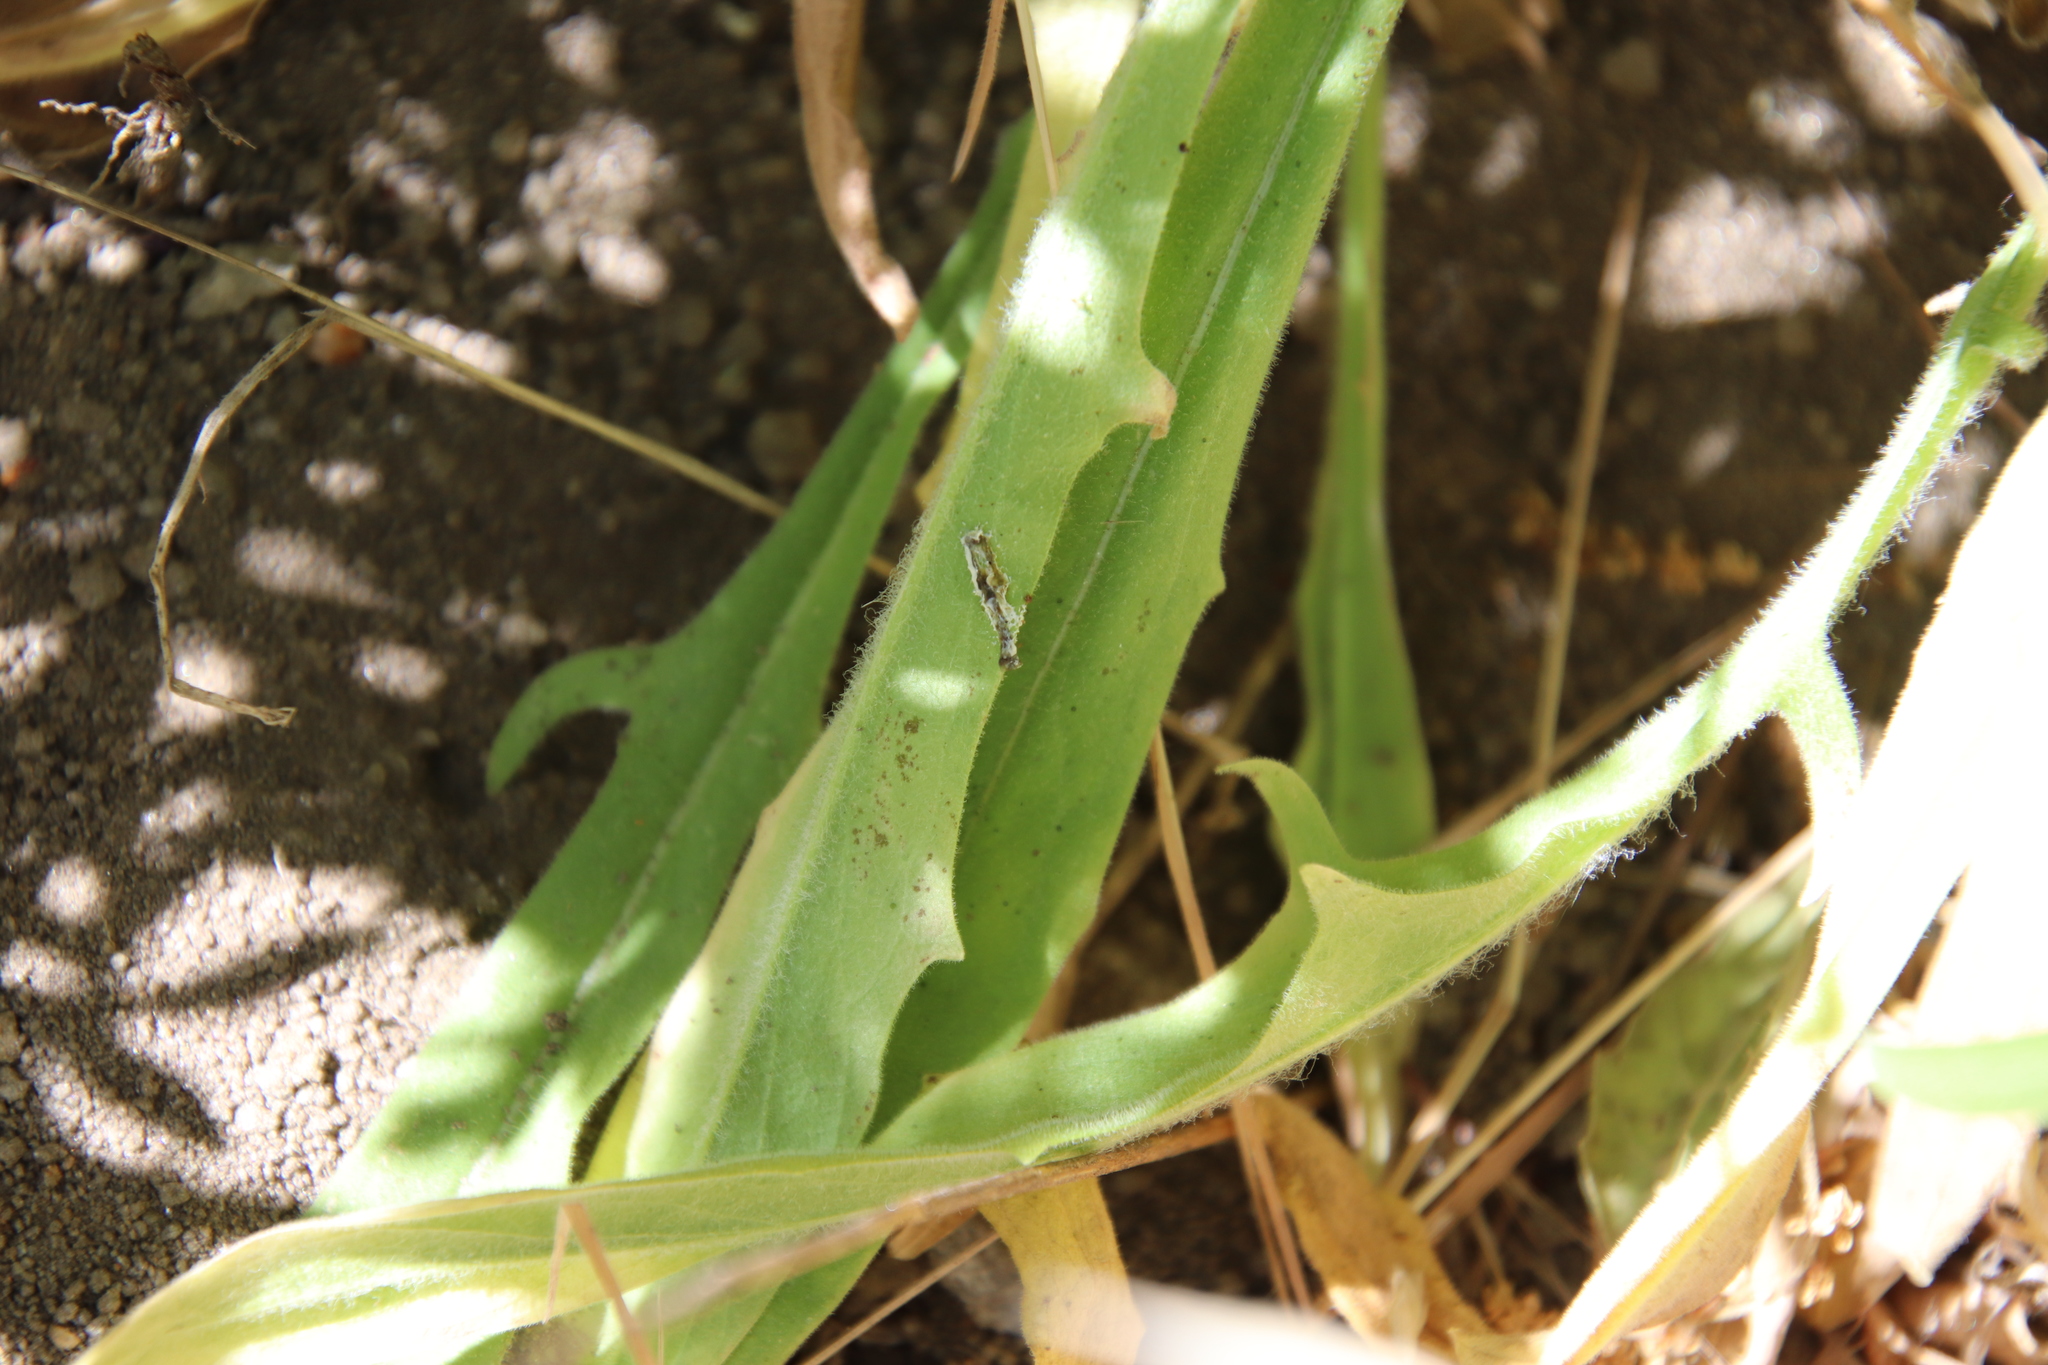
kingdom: Plantae
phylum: Tracheophyta
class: Magnoliopsida
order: Asterales
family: Asteraceae
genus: Agoseris
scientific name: Agoseris grandiflora
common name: Grassland agoseris
